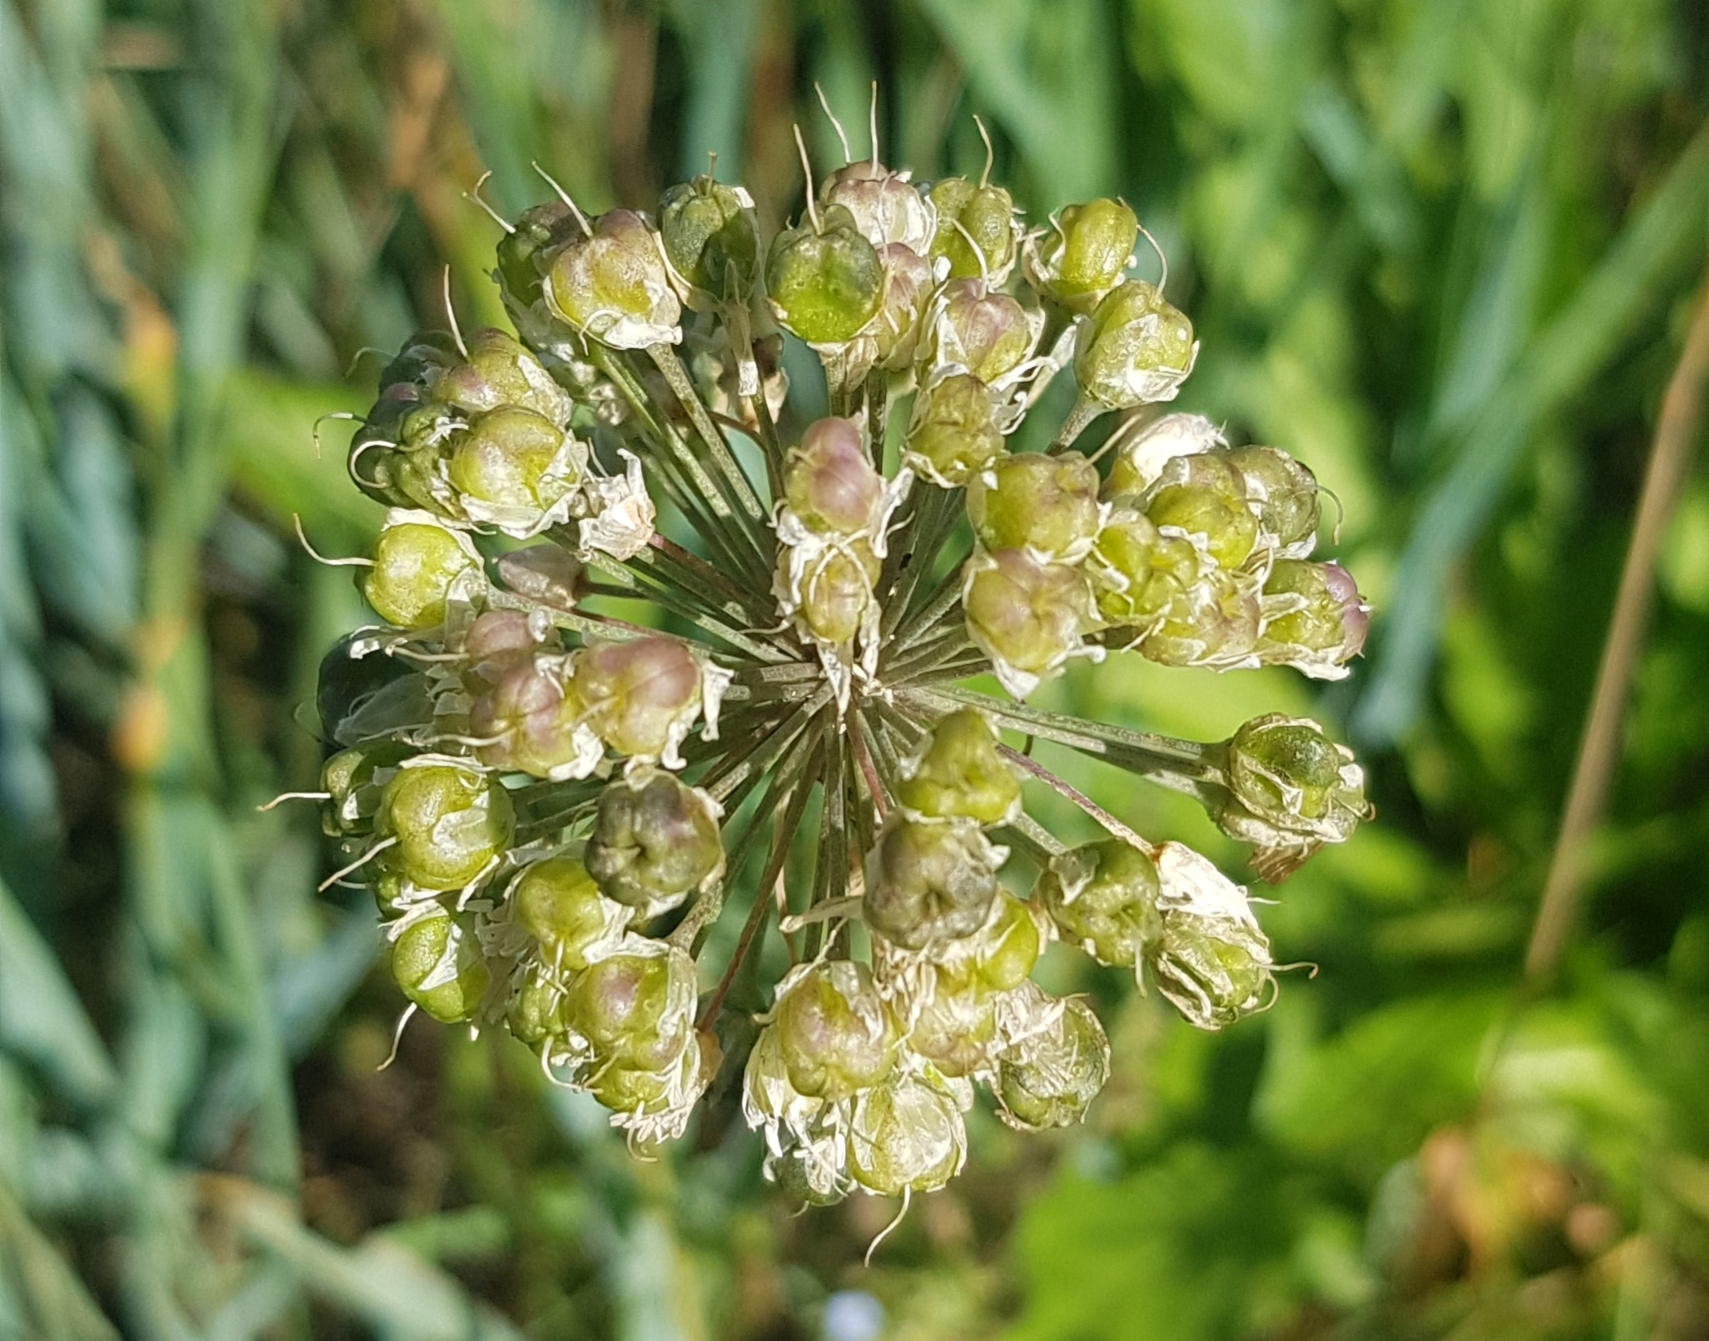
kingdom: Plantae
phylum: Tracheophyta
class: Liliopsida
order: Asparagales
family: Amaryllidaceae
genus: Allium
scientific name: Allium senescens
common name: German garlic
